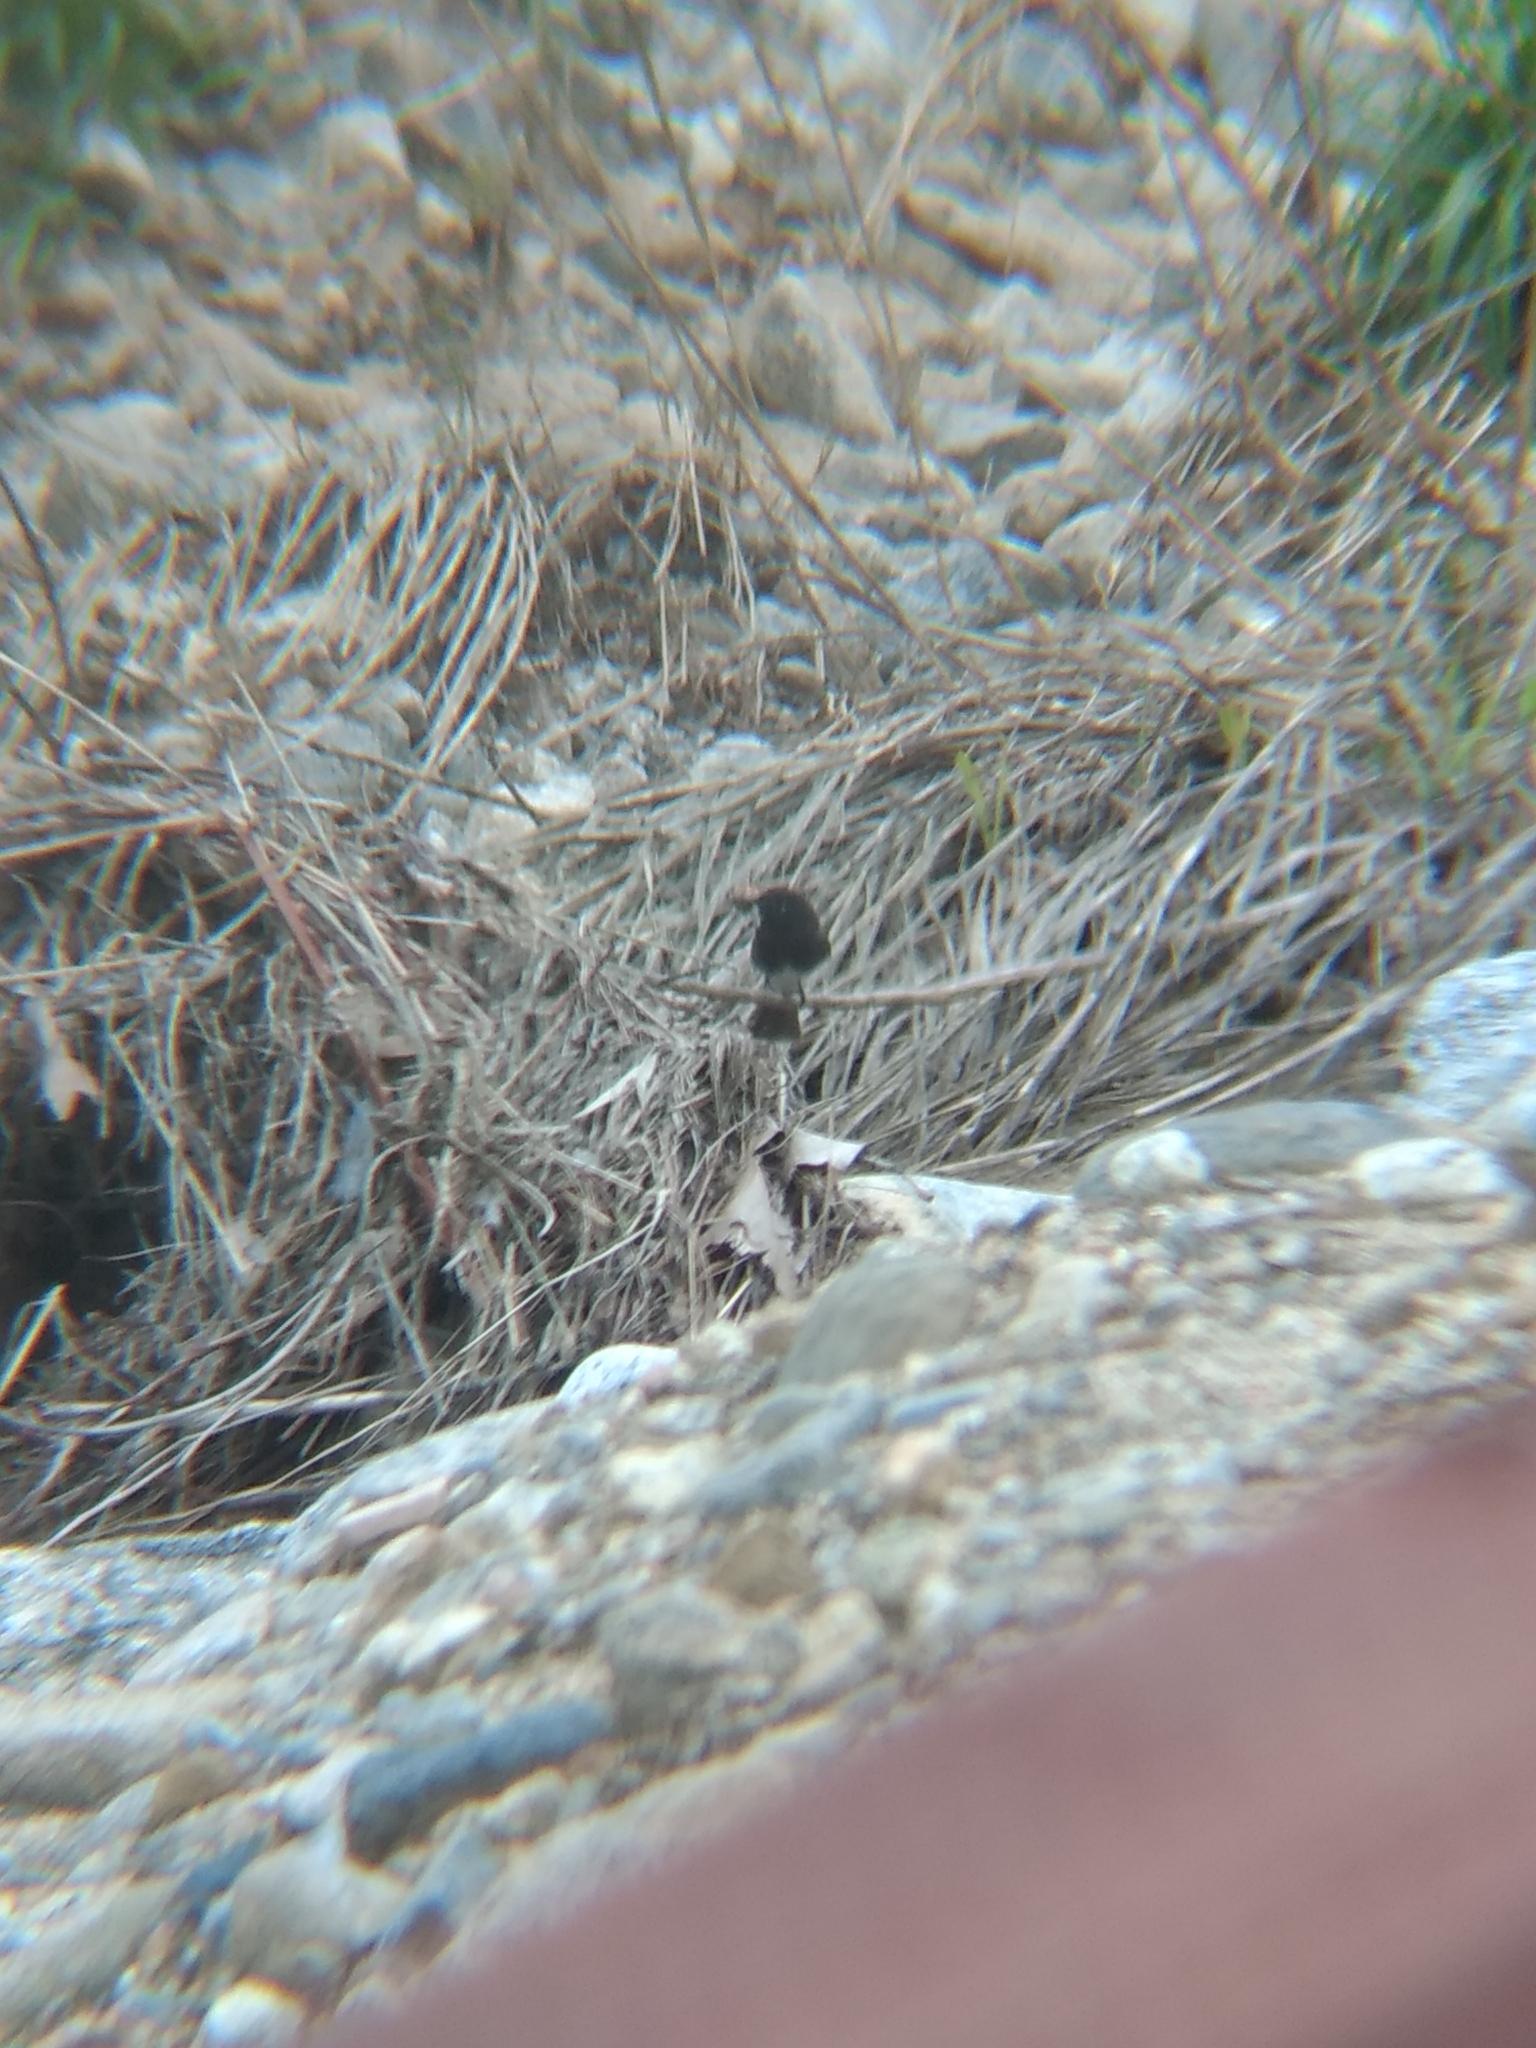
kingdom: Animalia
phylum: Chordata
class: Aves
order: Passeriformes
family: Tyrannidae
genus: Sayornis
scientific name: Sayornis nigricans
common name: Black phoebe
